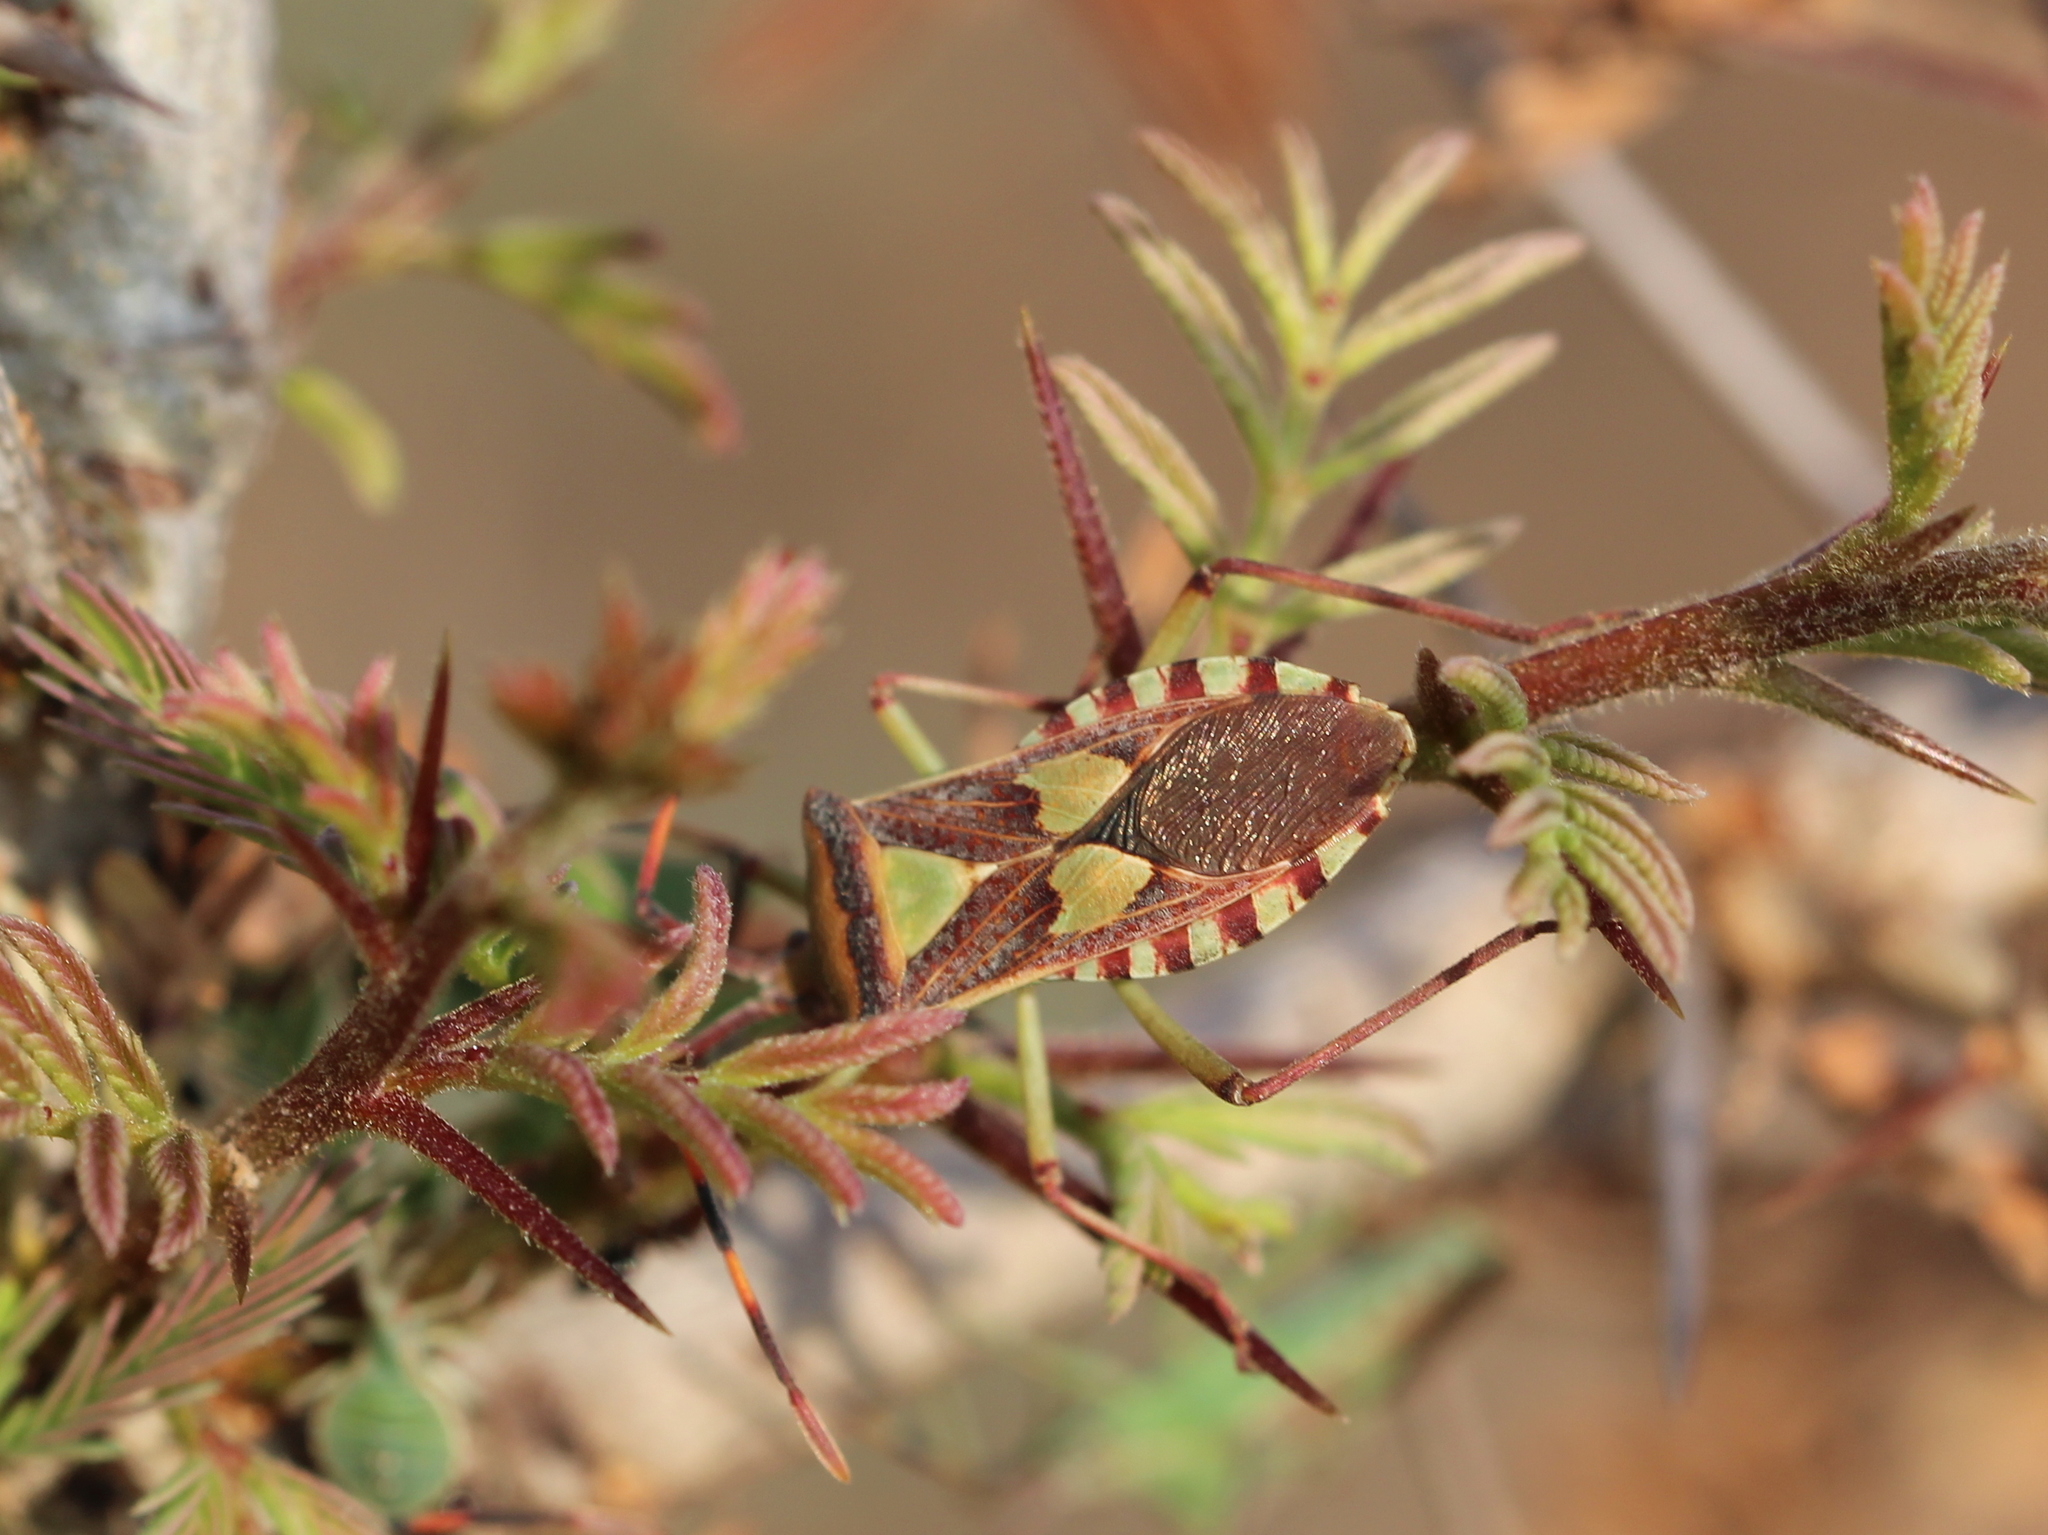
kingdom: Animalia
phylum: Arthropoda
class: Insecta
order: Hemiptera
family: Coreidae
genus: Prismatocerus
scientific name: Prismatocerus prominulus
